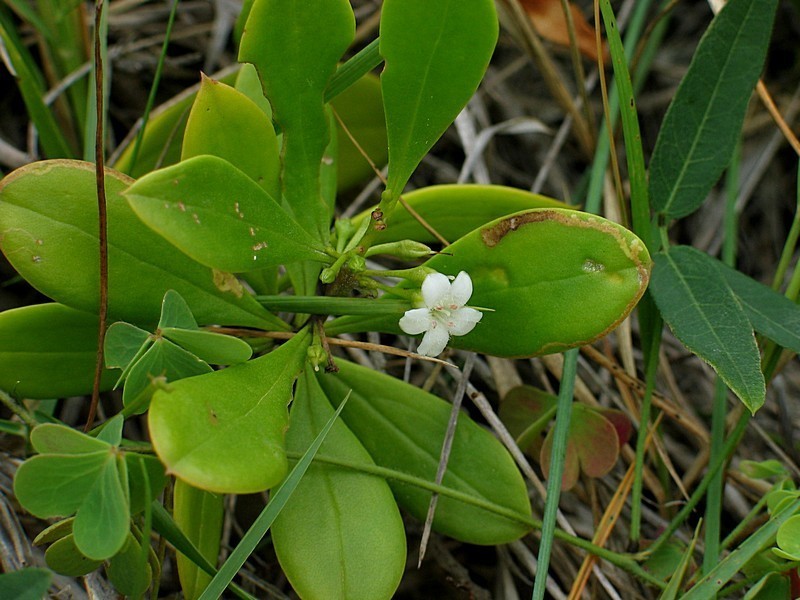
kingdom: Plantae
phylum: Tracheophyta
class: Magnoliopsida
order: Lamiales
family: Scrophulariaceae
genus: Myoporum
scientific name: Myoporum boninense
